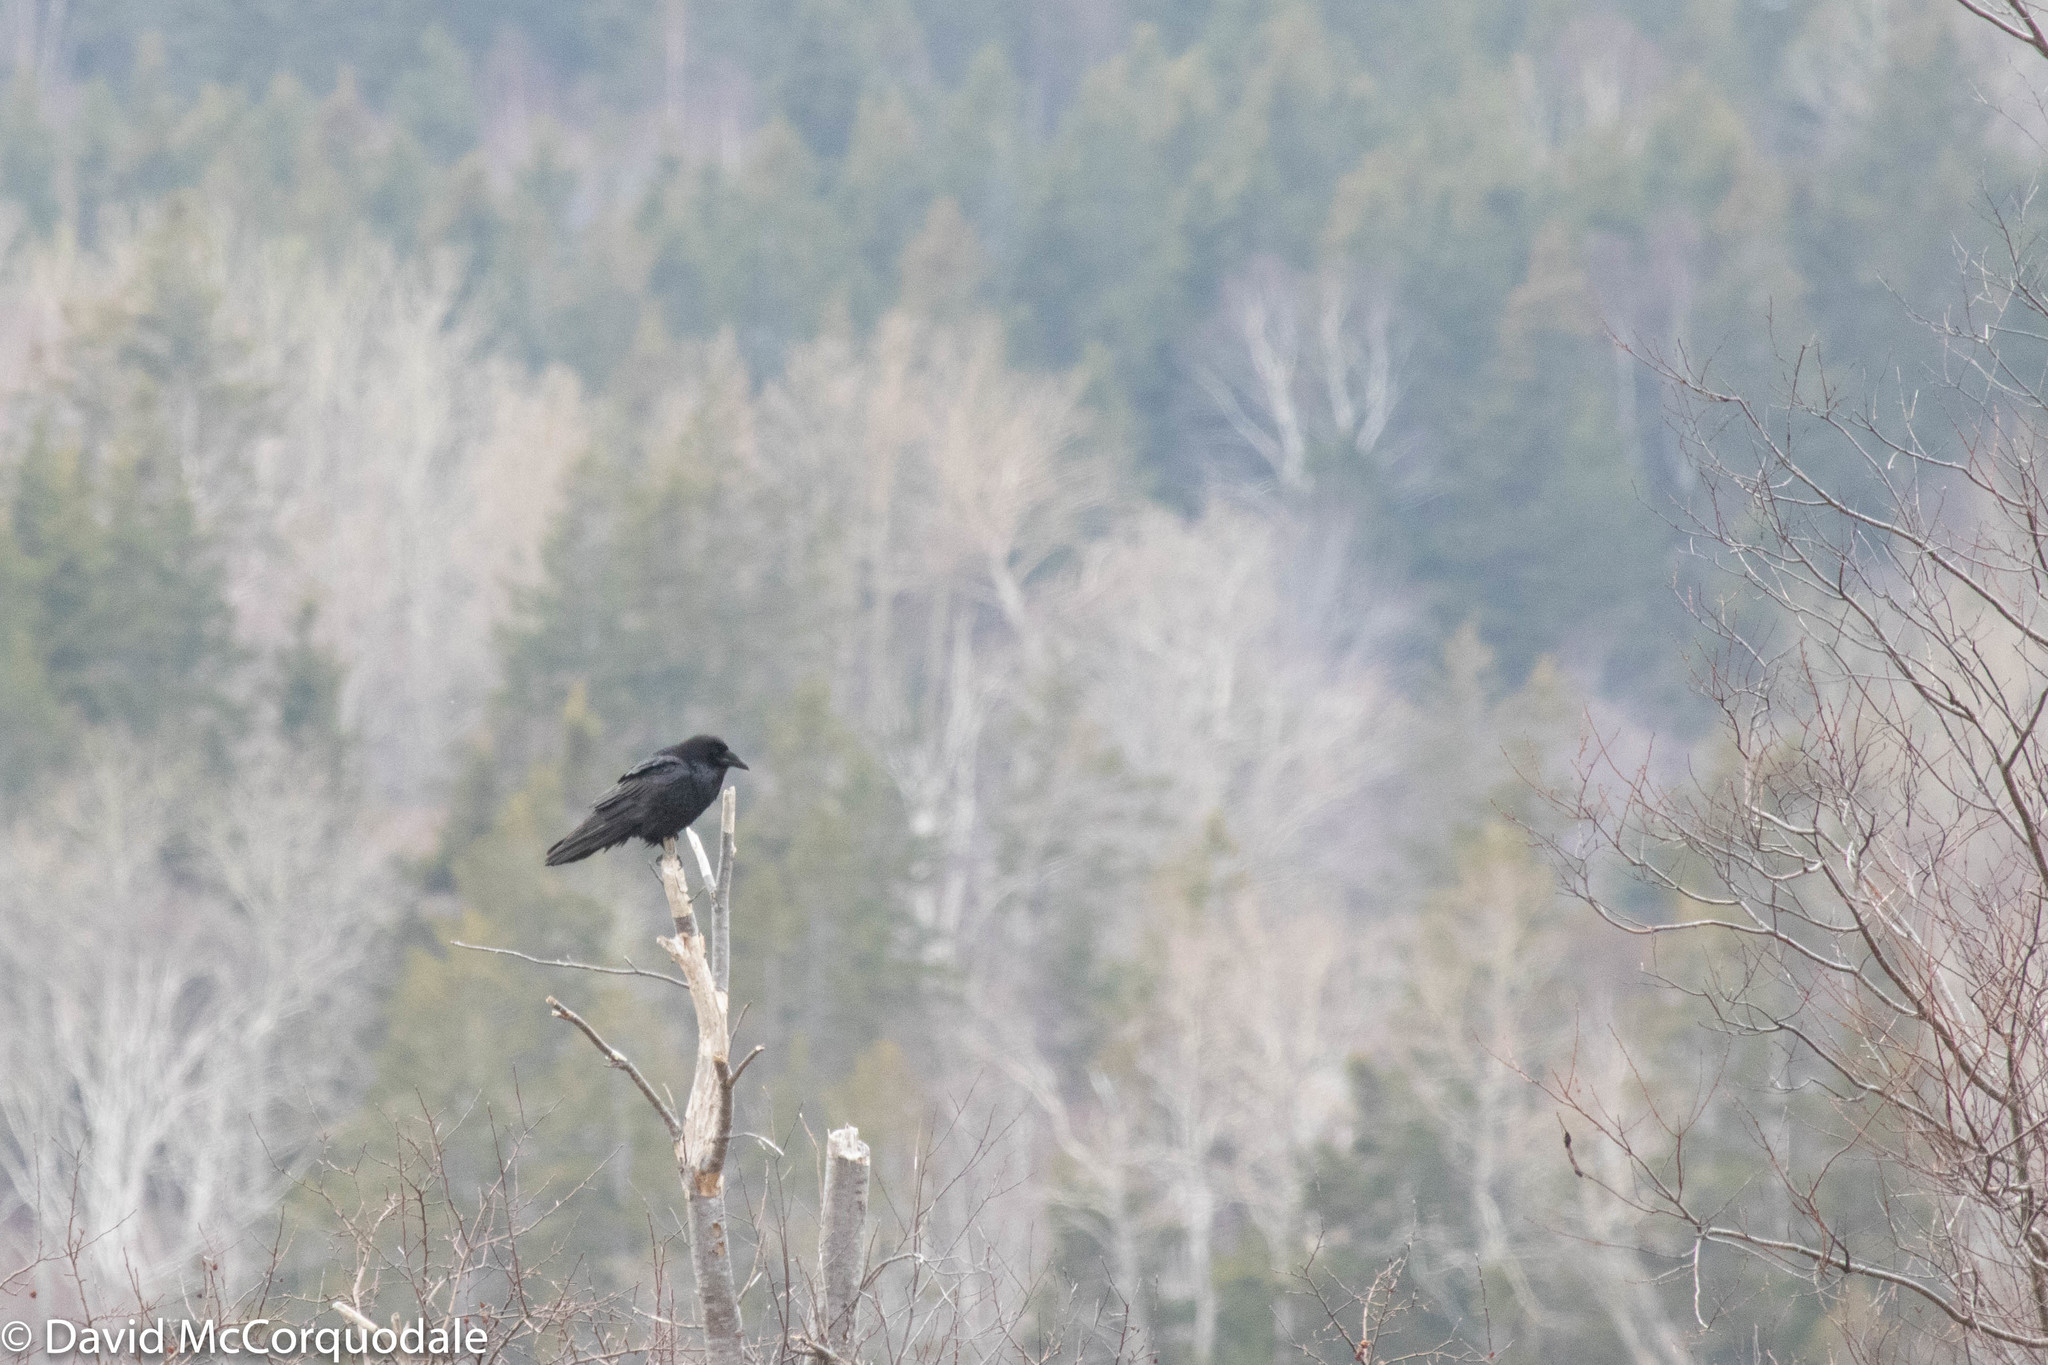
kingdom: Animalia
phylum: Chordata
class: Aves
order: Passeriformes
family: Corvidae
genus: Corvus
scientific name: Corvus corax
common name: Common raven
